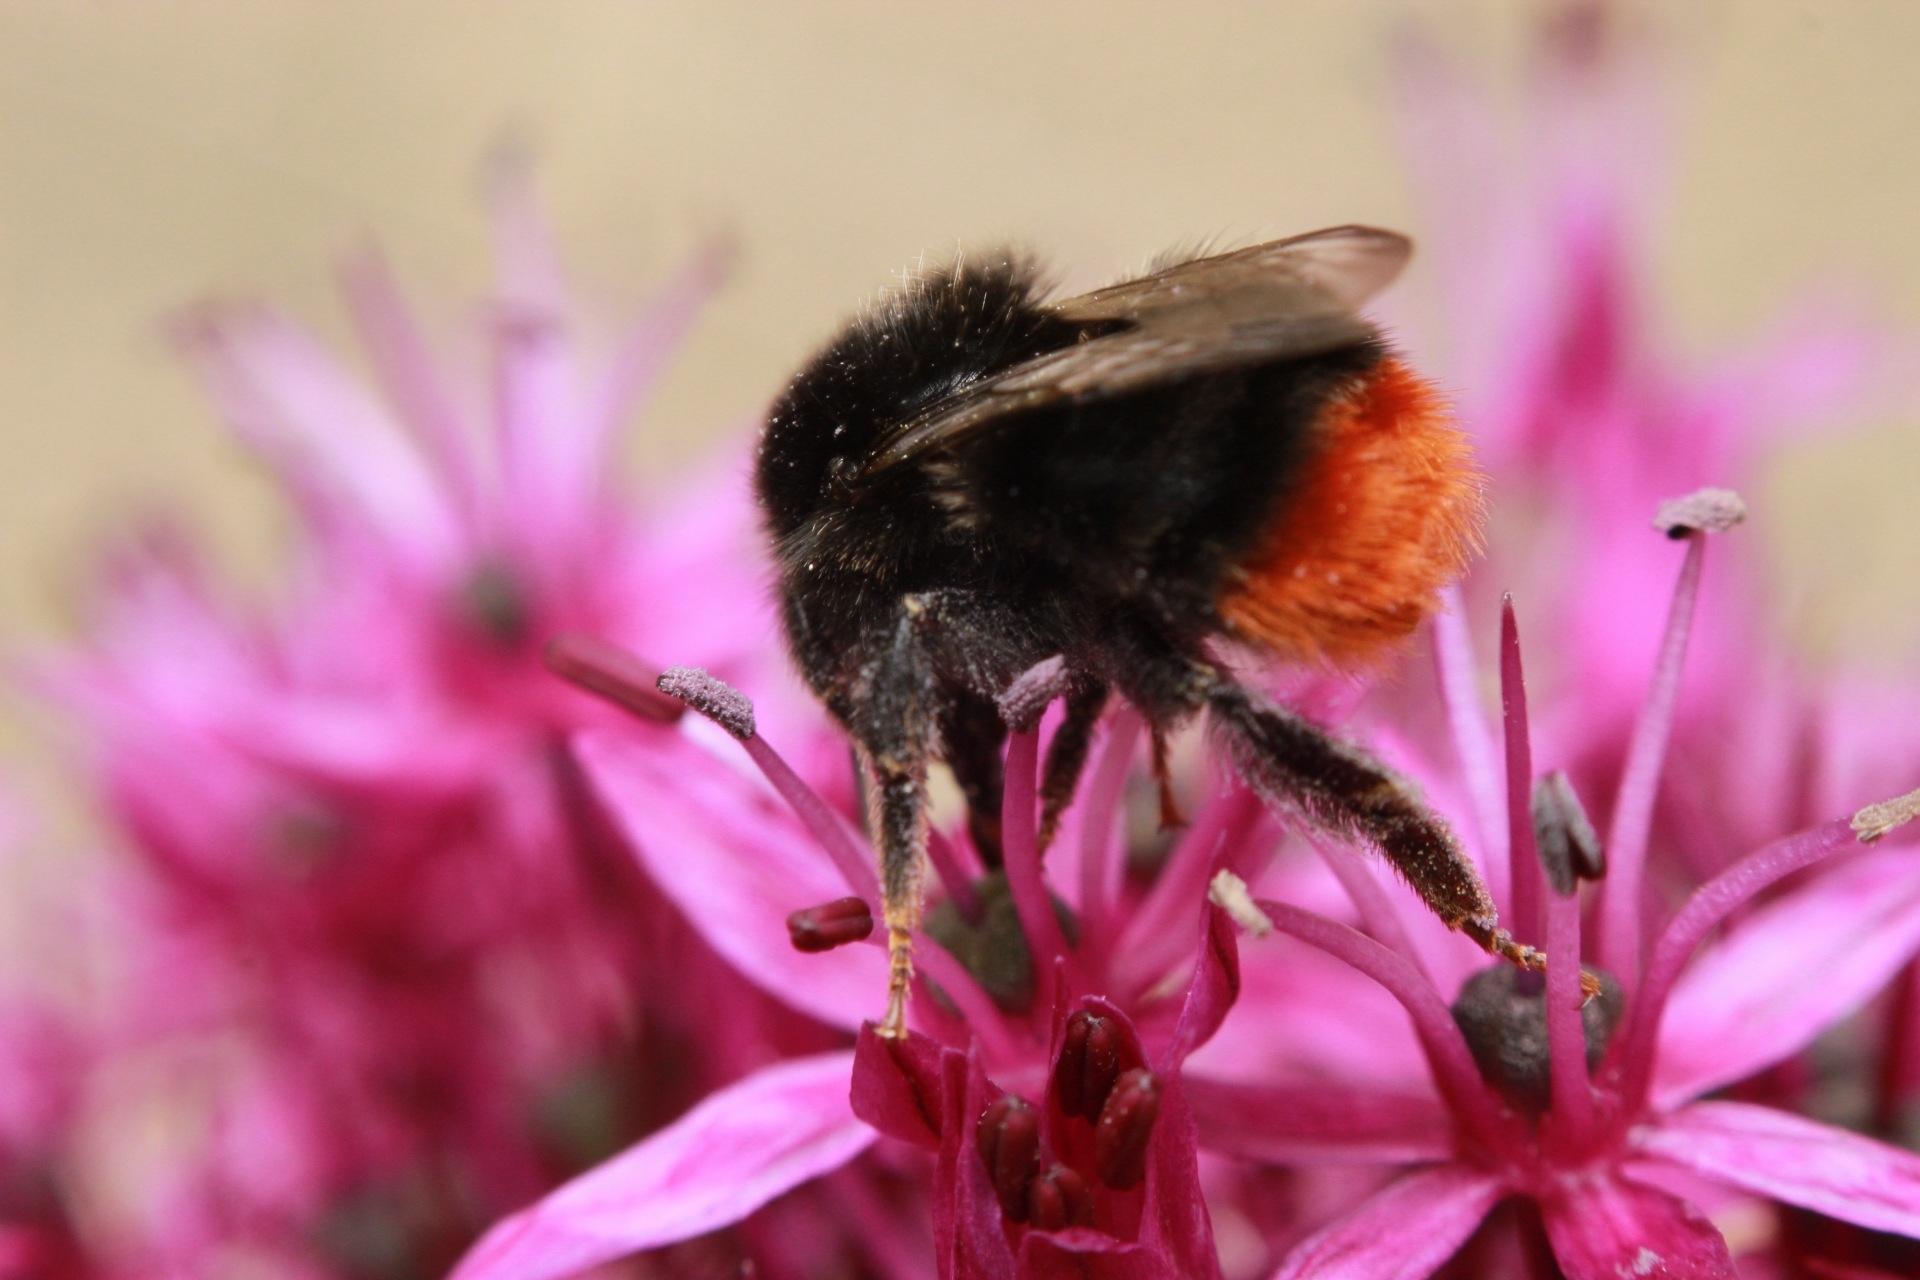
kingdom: Animalia
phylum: Arthropoda
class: Insecta
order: Hymenoptera
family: Apidae
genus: Bombus
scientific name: Bombus lapidarius
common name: Large red-tailed humble-bee
